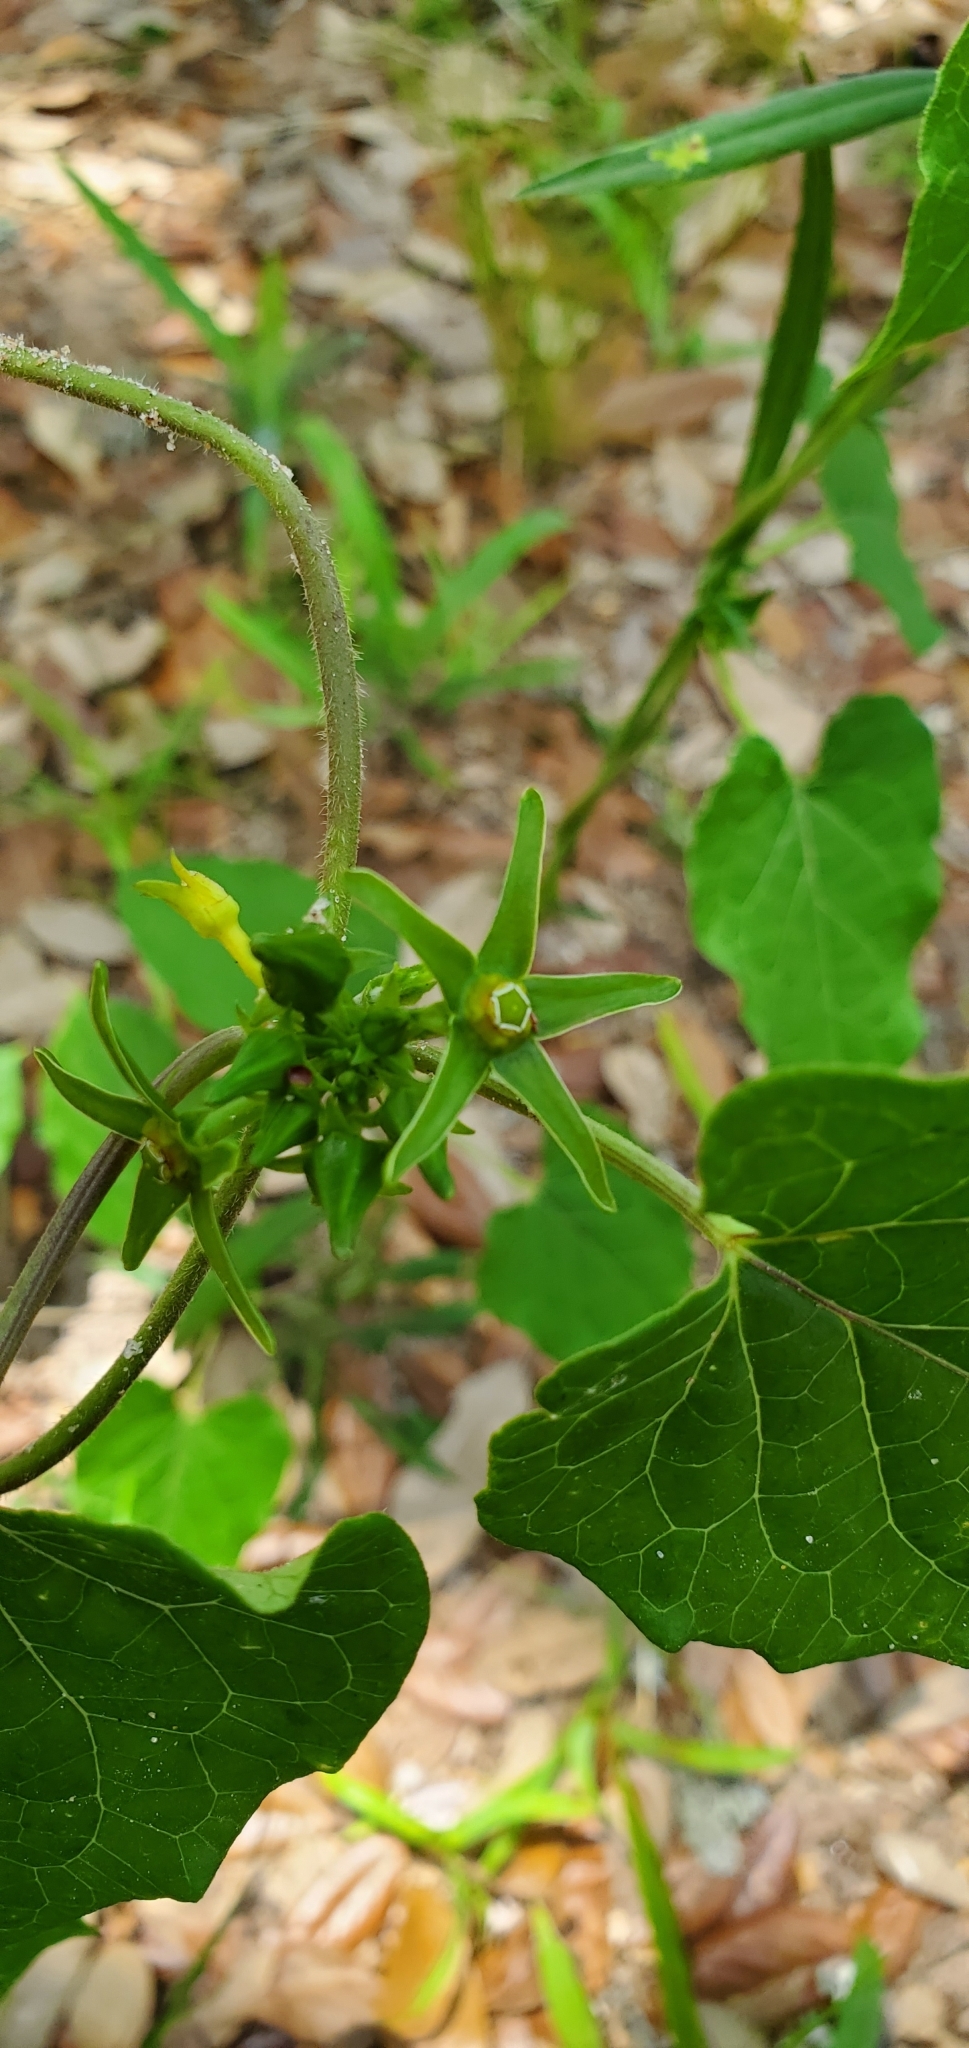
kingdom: Plantae
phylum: Tracheophyta
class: Magnoliopsida
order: Gentianales
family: Apocynaceae
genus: Gonolobus
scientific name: Gonolobus suberosus
